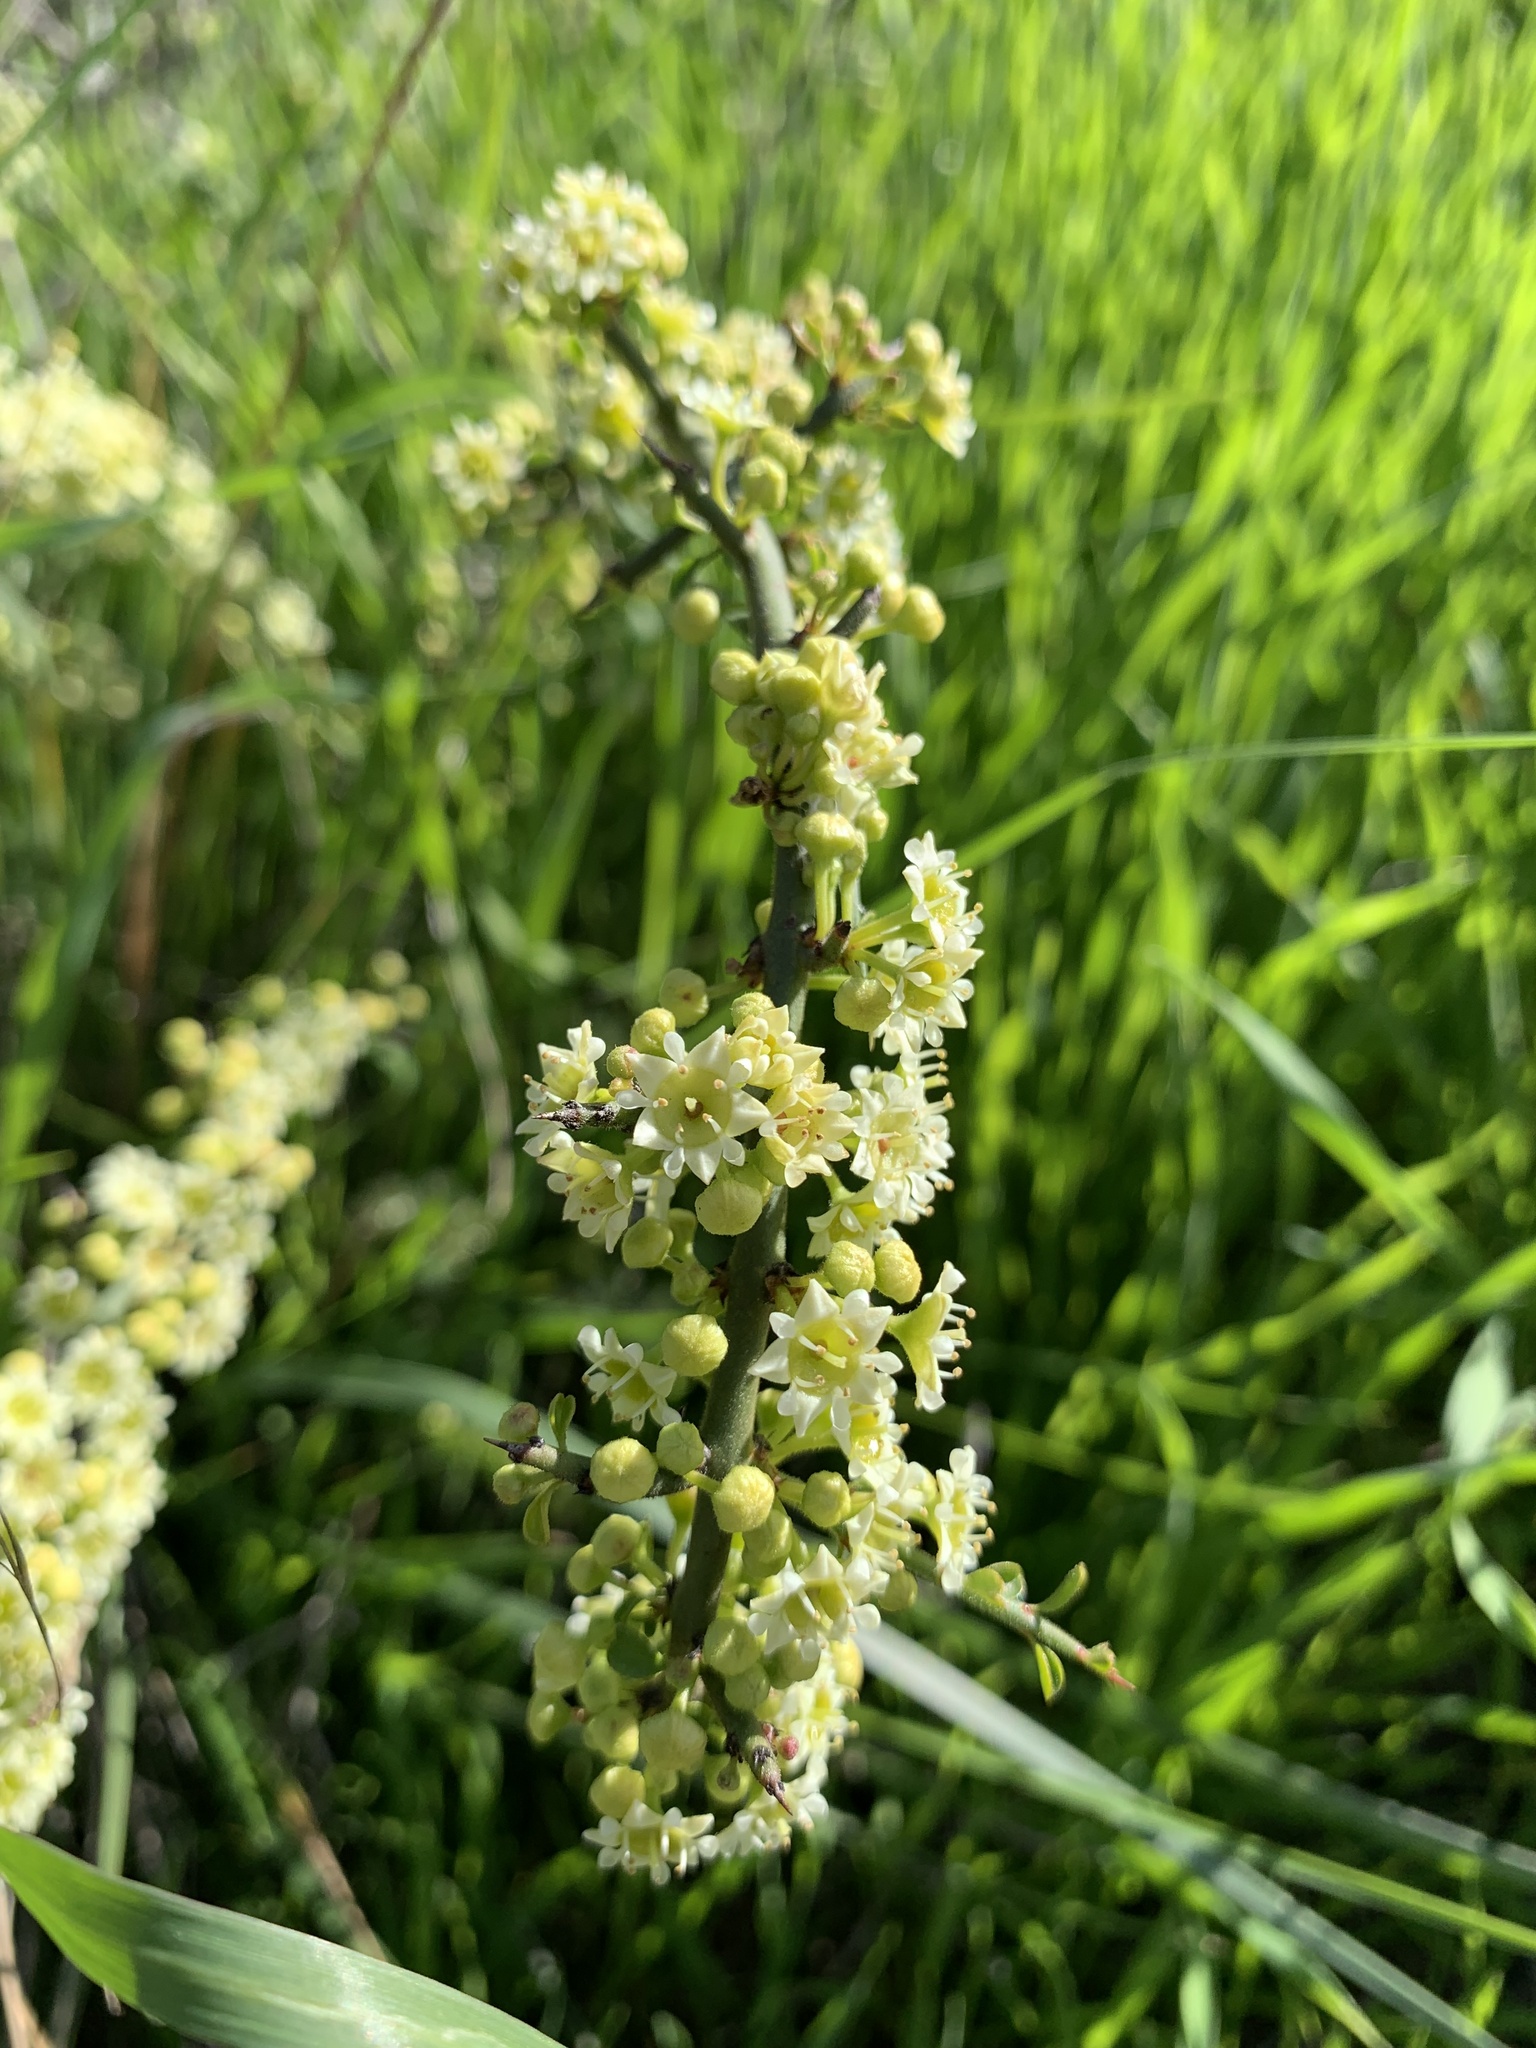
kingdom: Plantae
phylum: Tracheophyta
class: Magnoliopsida
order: Rosales
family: Rhamnaceae
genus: Adolphia
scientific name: Adolphia californica
